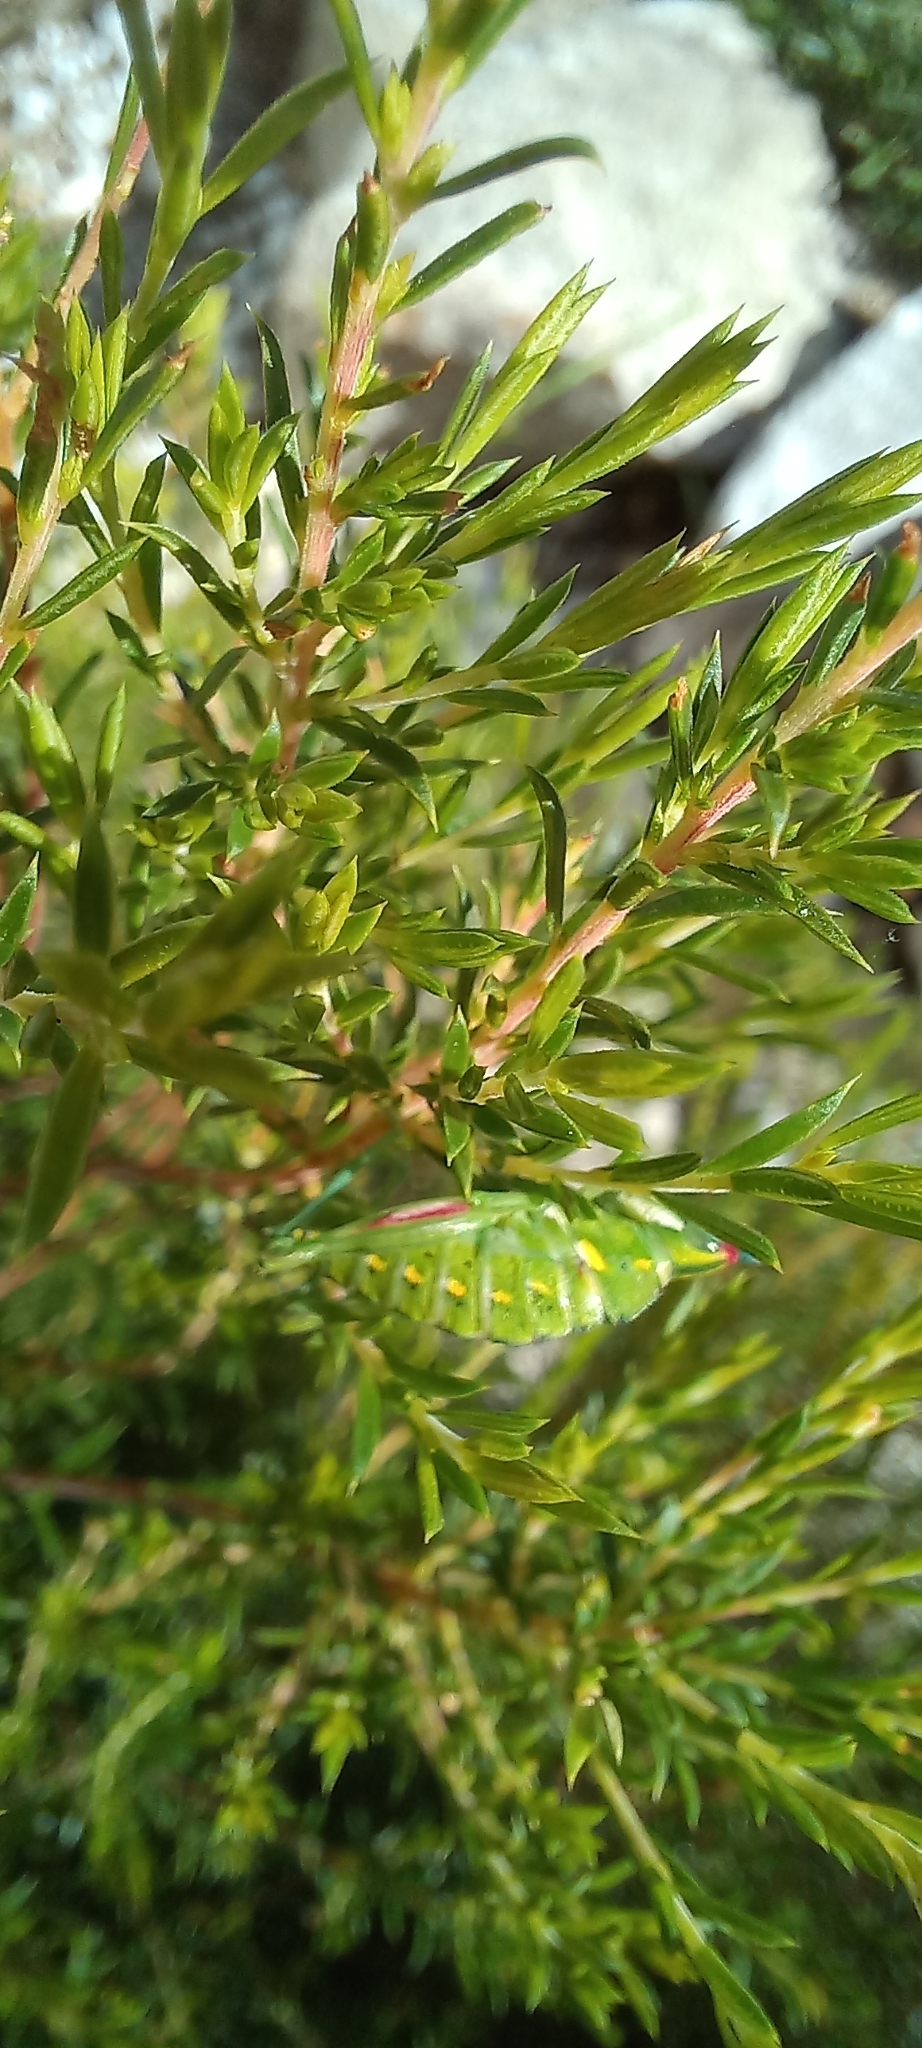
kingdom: Animalia
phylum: Arthropoda
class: Insecta
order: Orthoptera
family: Thericleidae
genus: Thericlesiella
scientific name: Thericlesiella meridionalis
